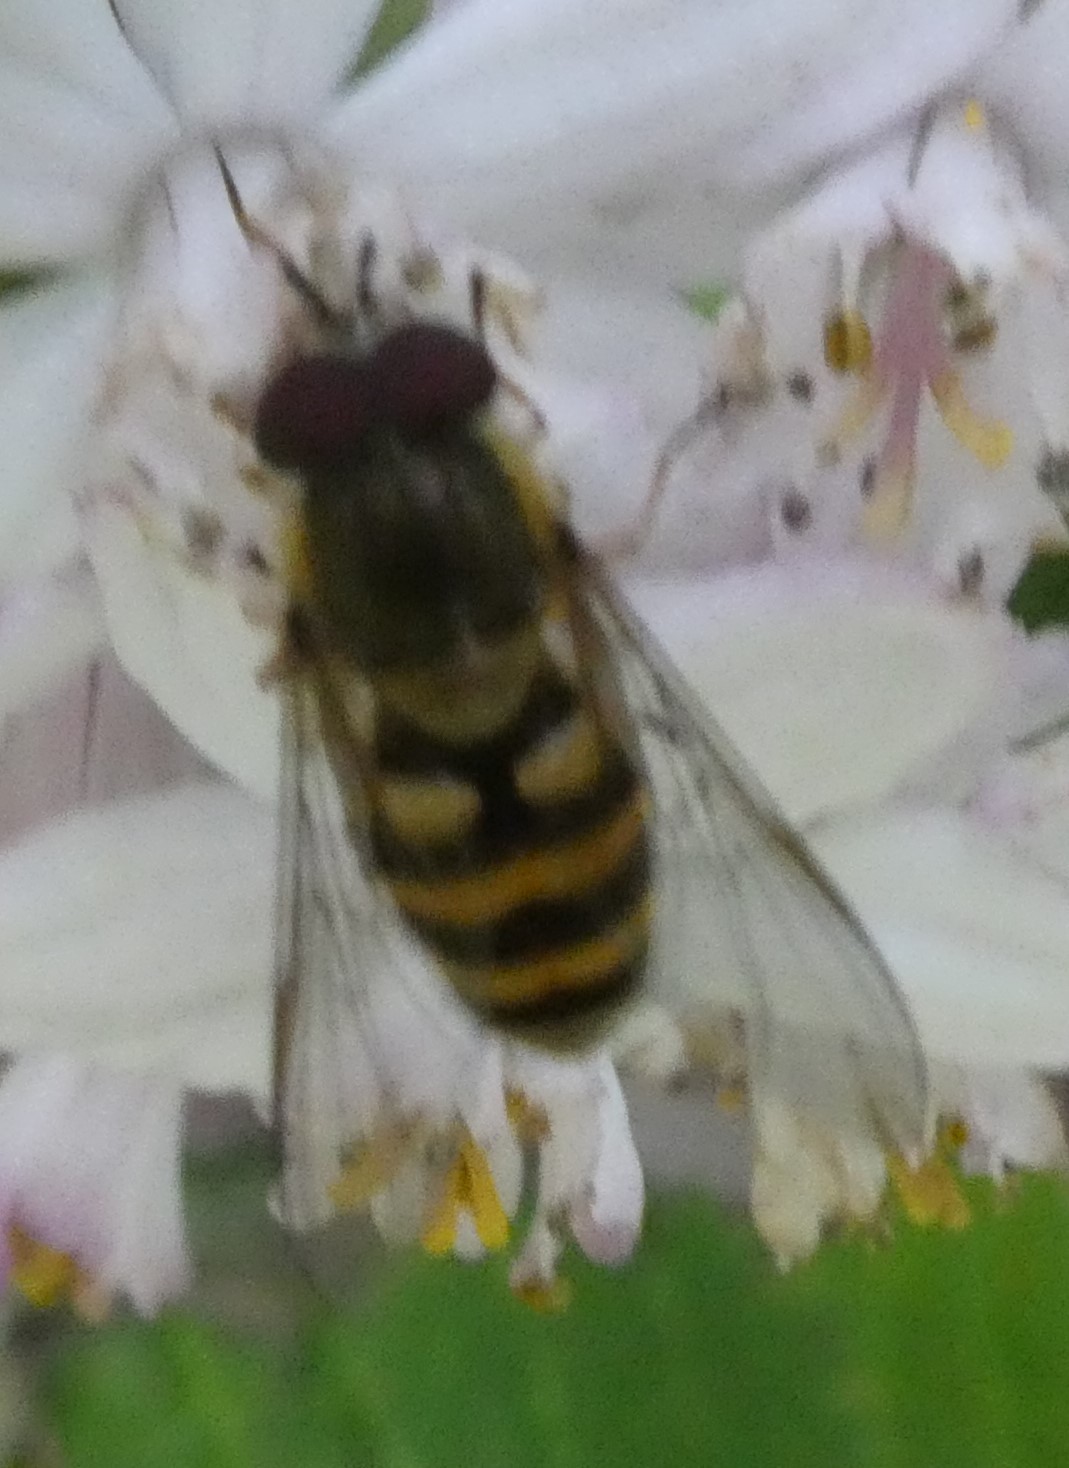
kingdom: Animalia
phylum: Arthropoda
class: Insecta
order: Diptera
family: Syrphidae
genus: Syrphus
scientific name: Syrphus
